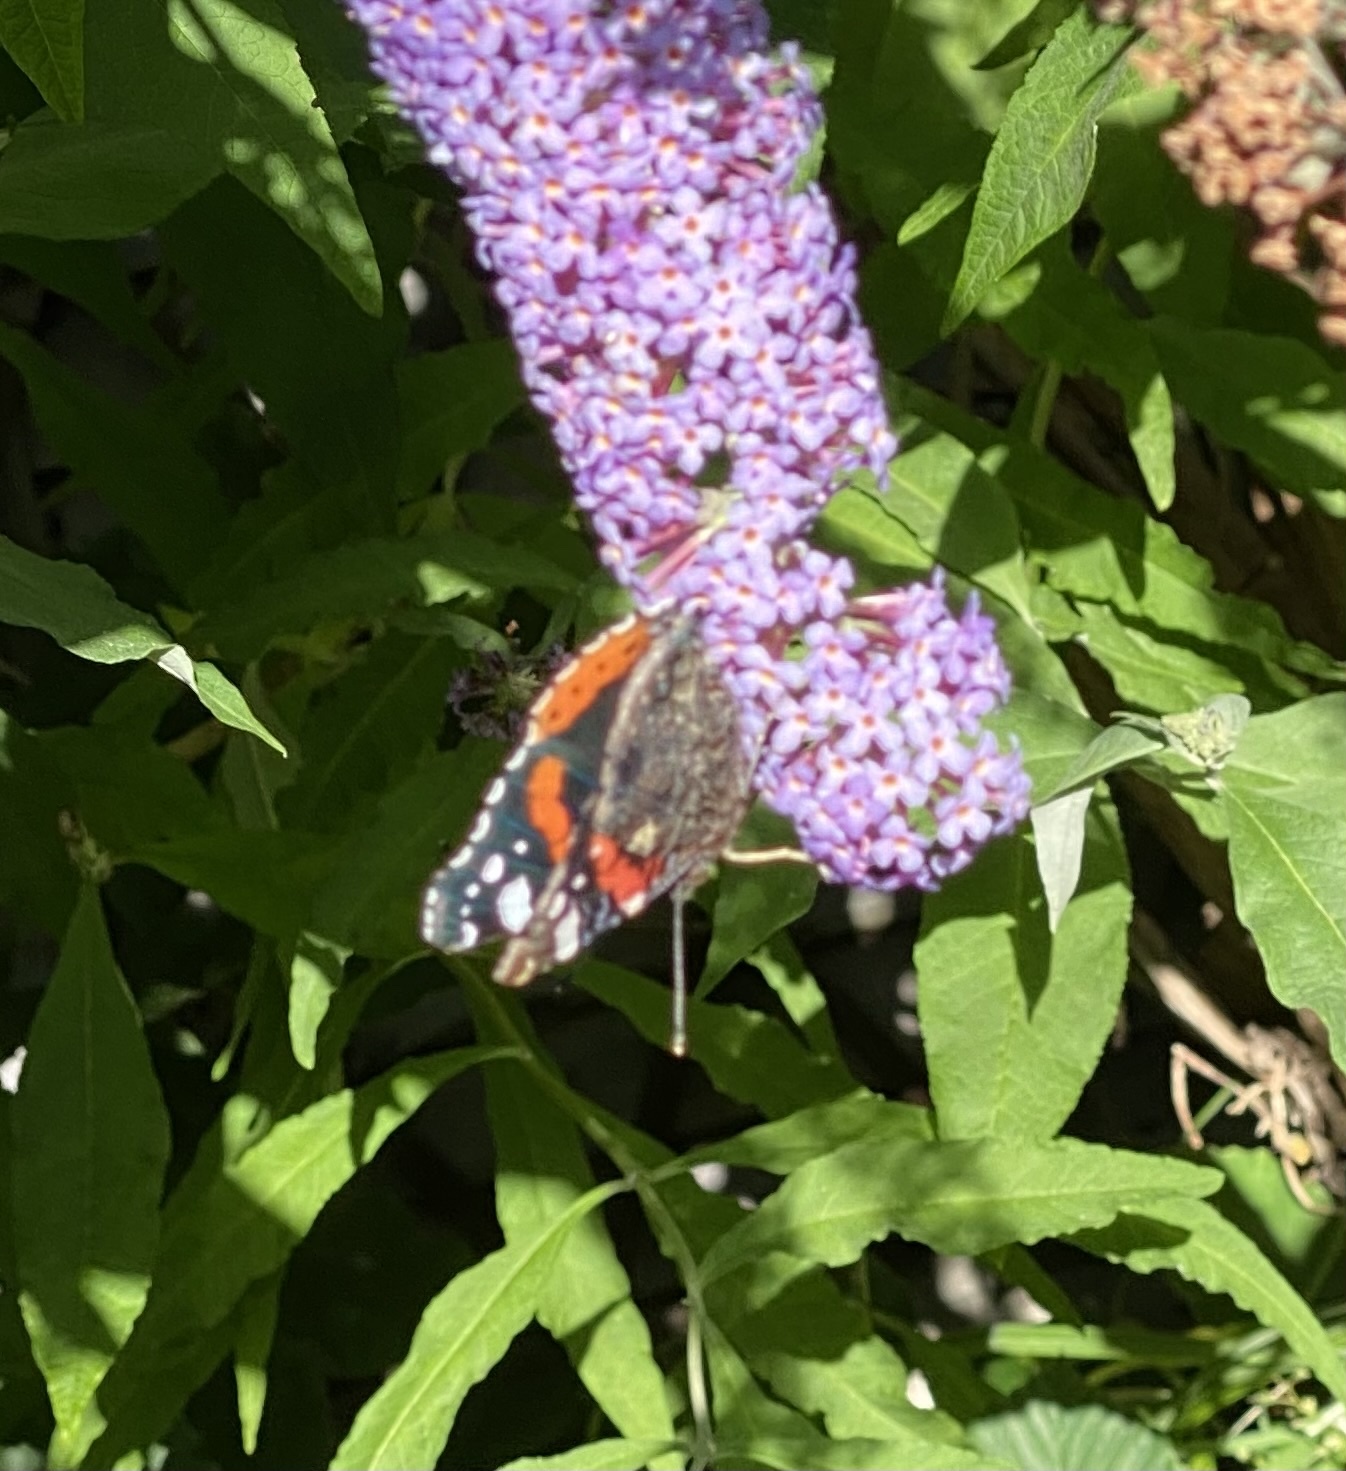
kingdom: Animalia
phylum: Arthropoda
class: Insecta
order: Lepidoptera
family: Nymphalidae
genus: Vanessa
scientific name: Vanessa atalanta
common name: Red admiral
